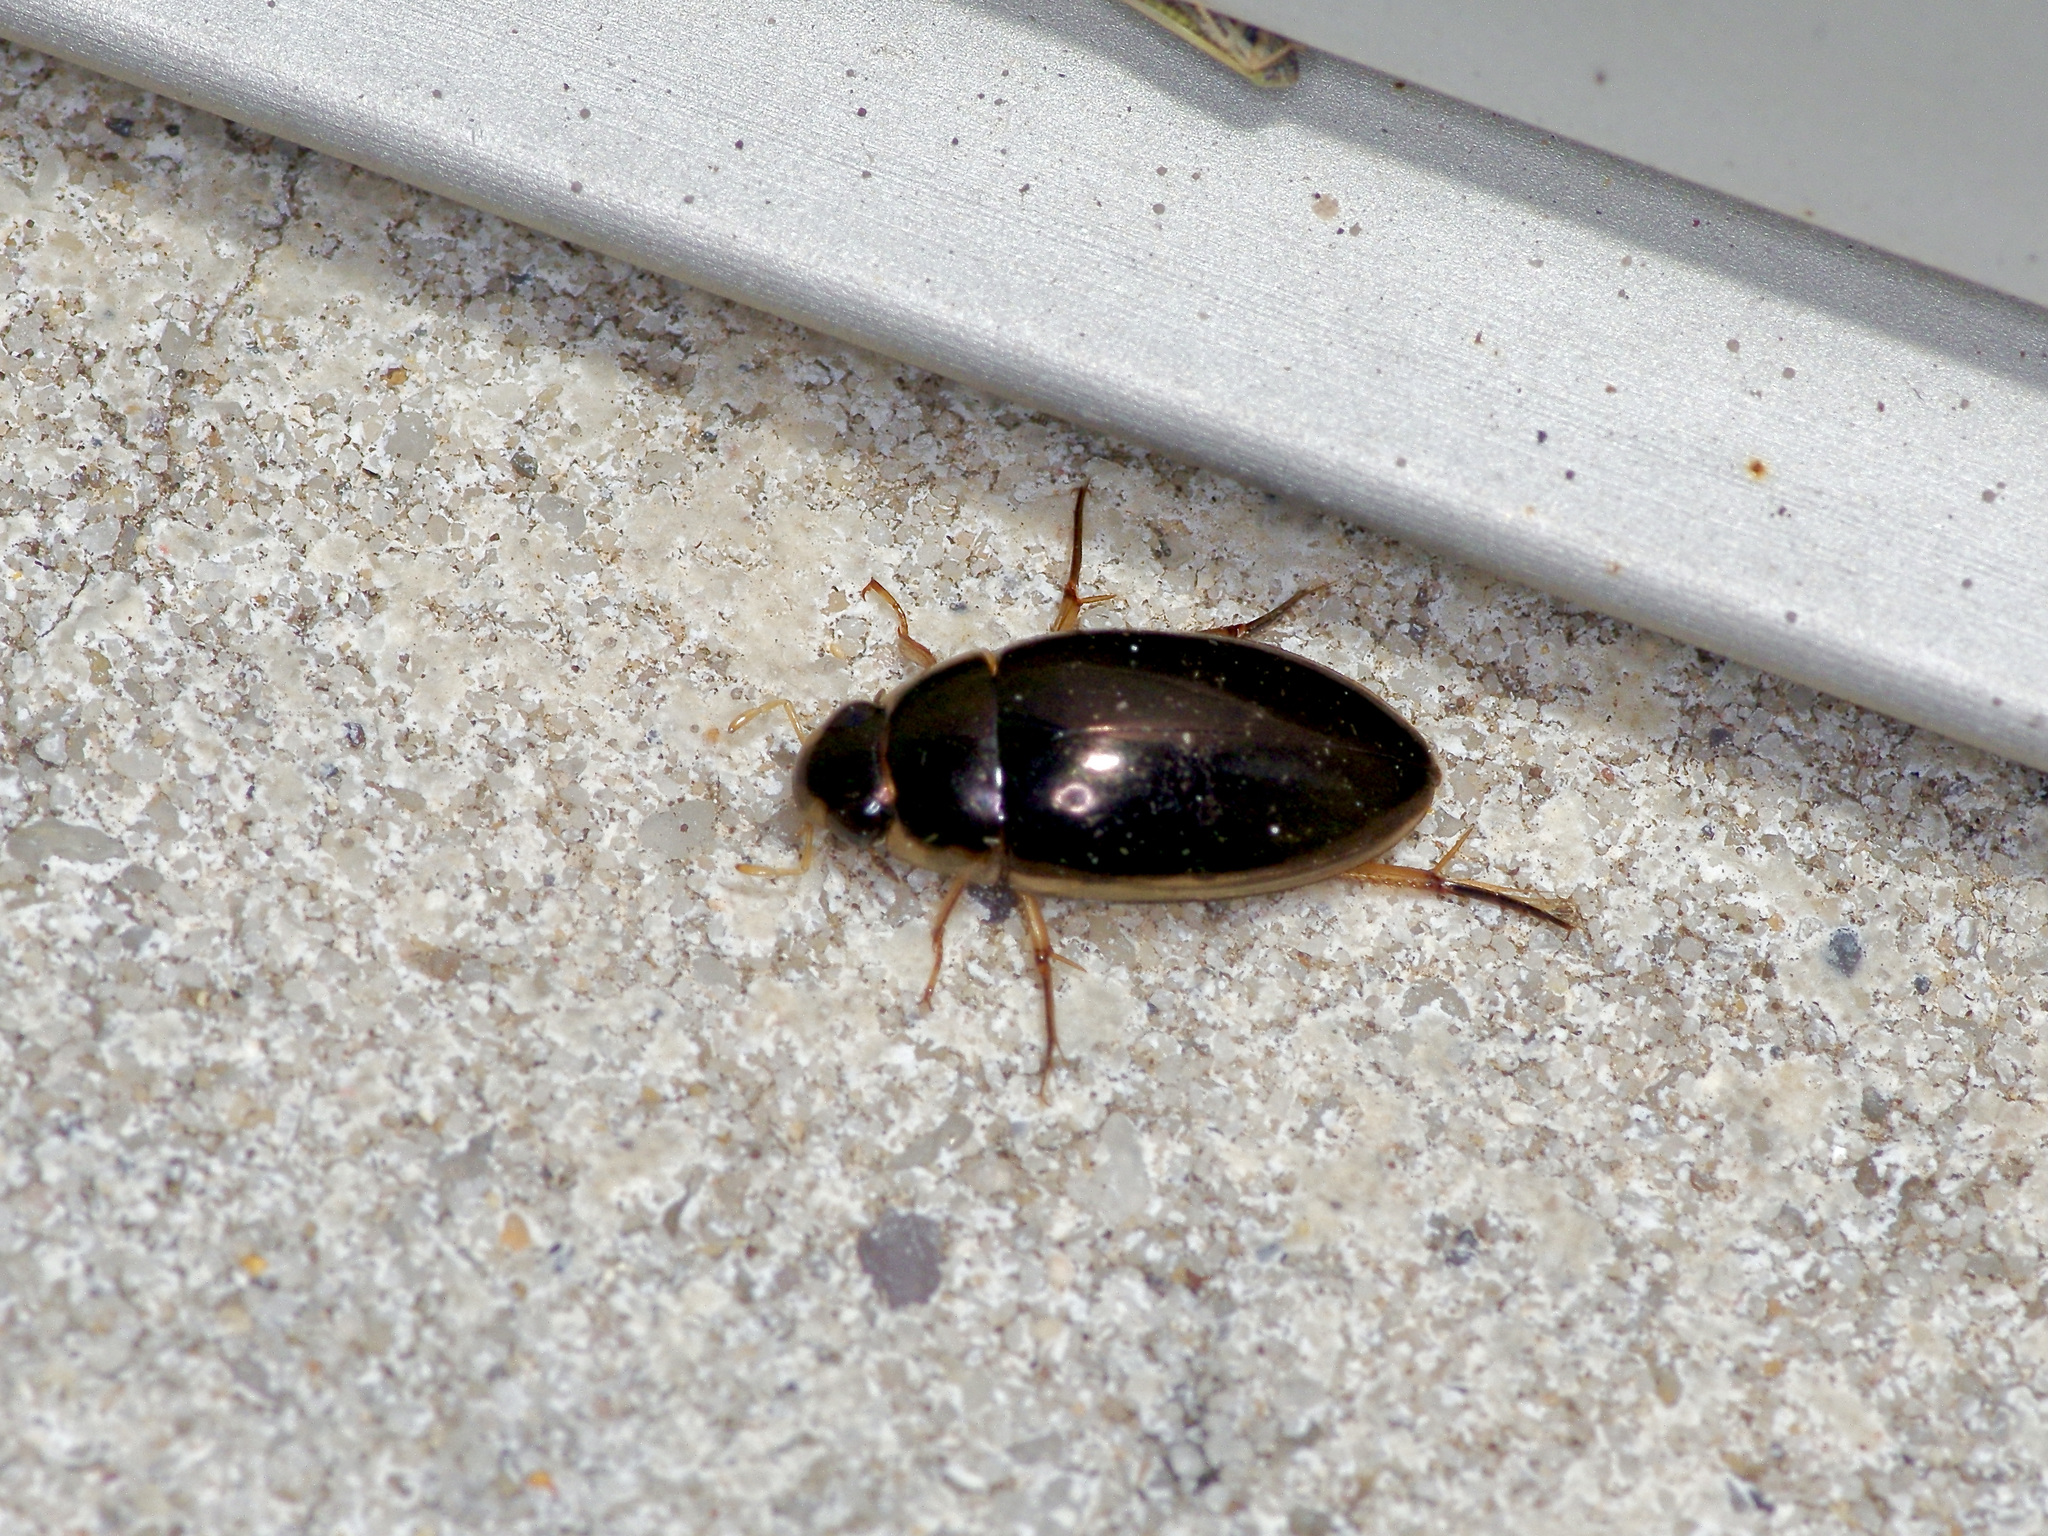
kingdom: Animalia
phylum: Arthropoda
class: Insecta
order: Coleoptera
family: Hydrophilidae
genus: Tropisternus
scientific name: Tropisternus lateralis
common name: Lateral-banded water scavenger beetle
